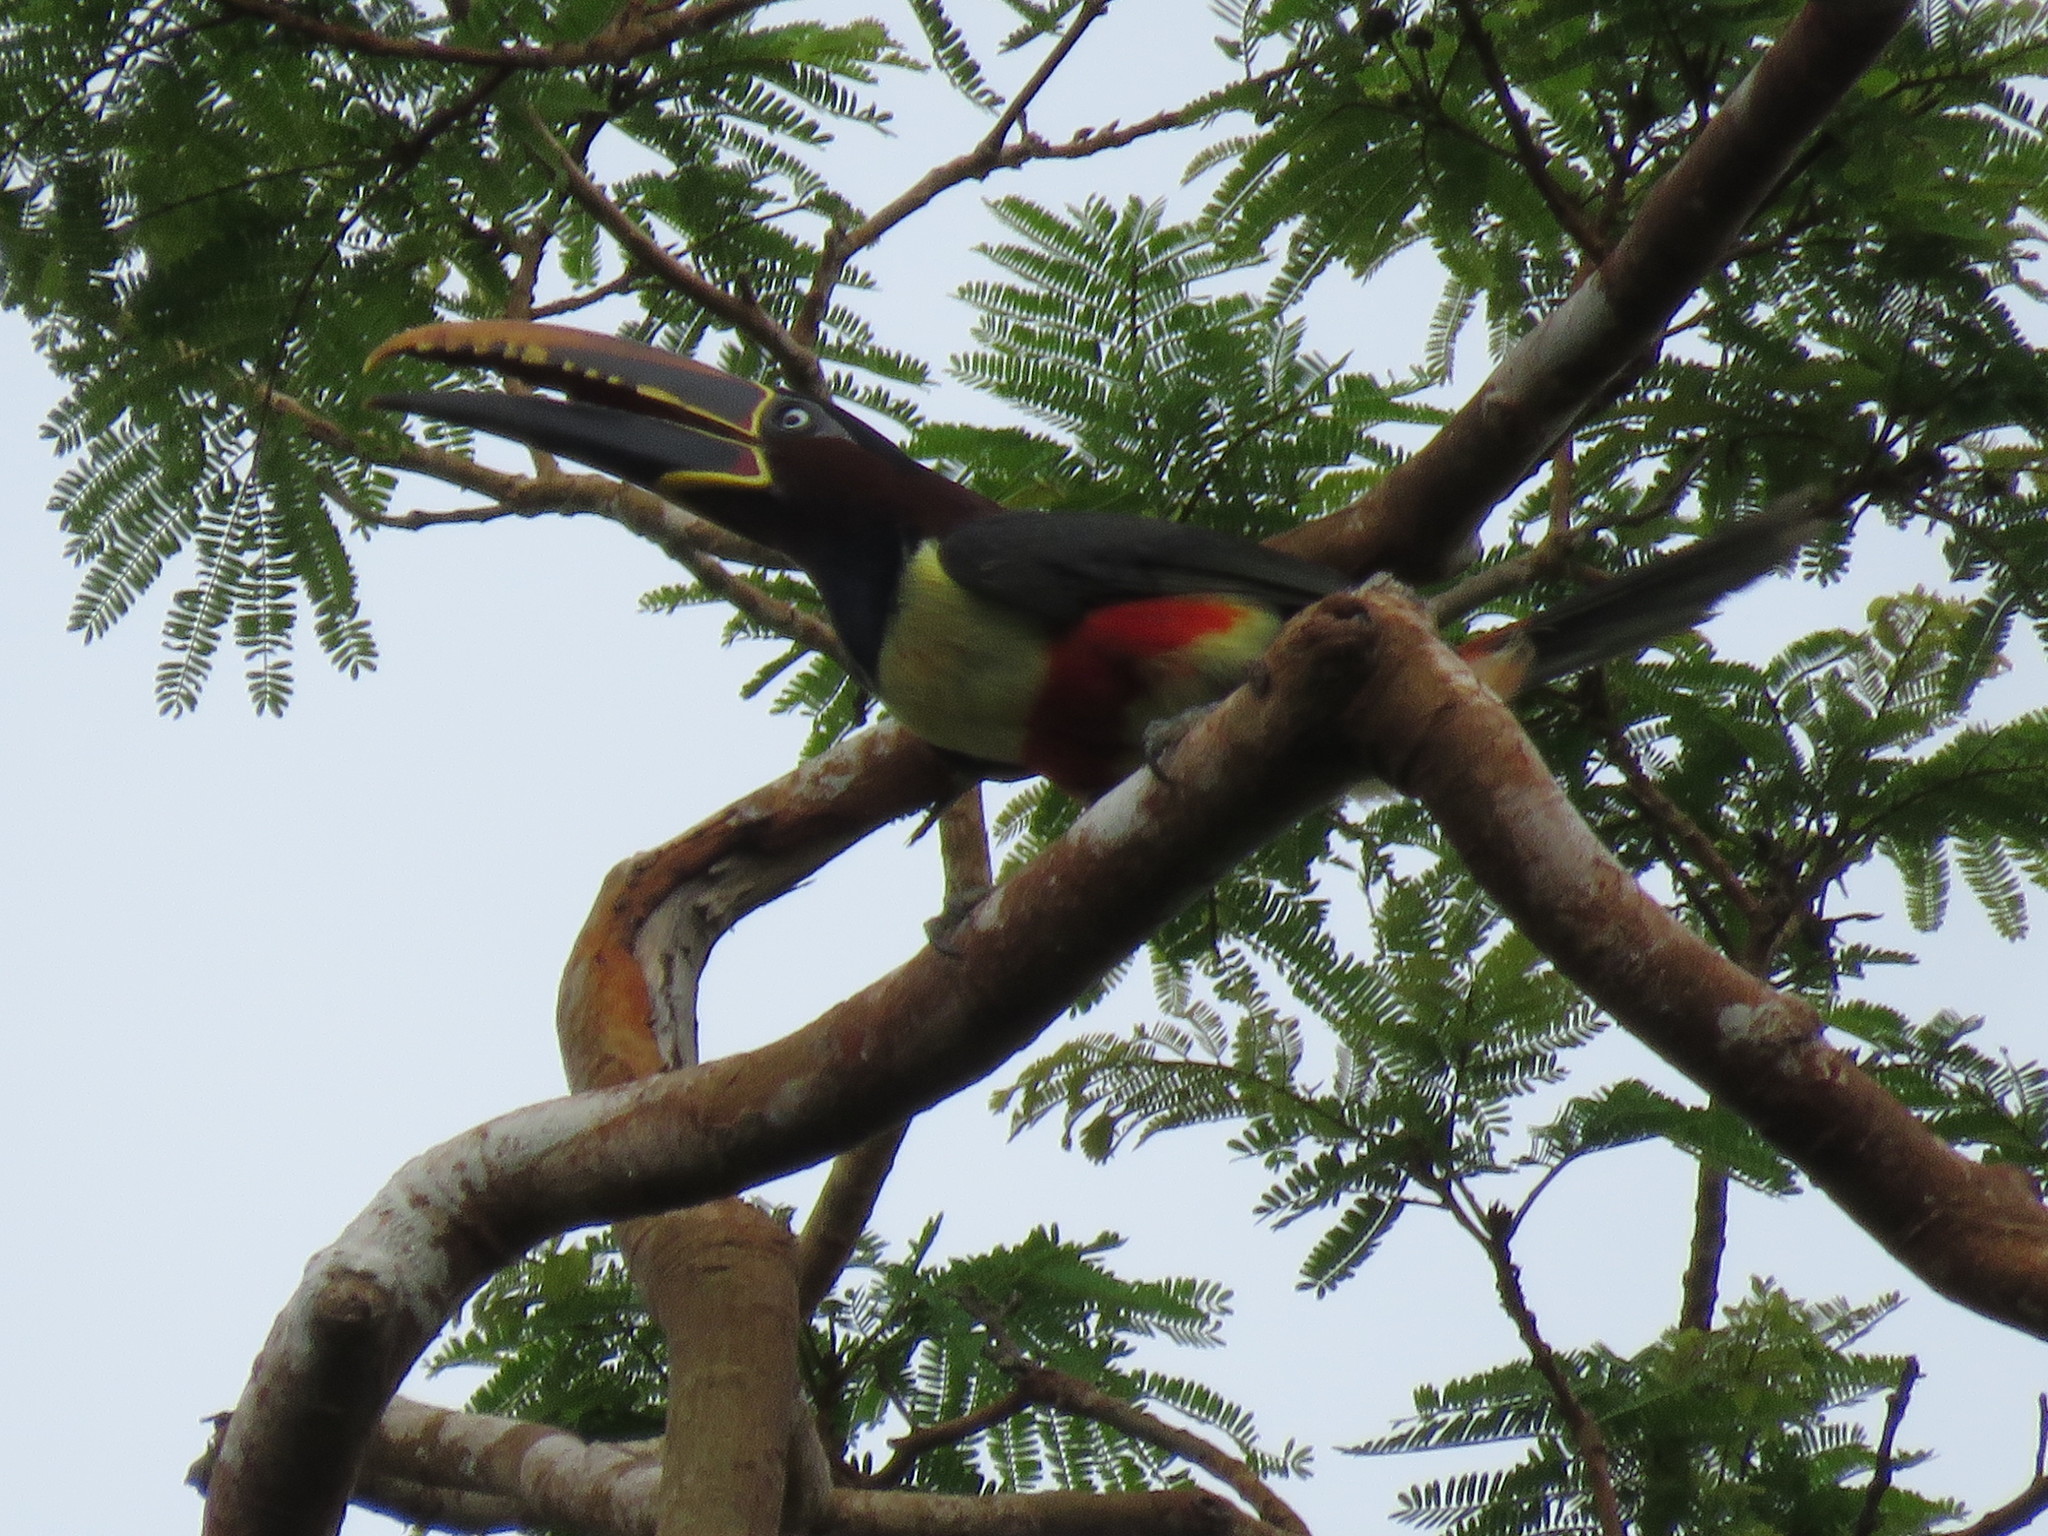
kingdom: Animalia
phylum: Chordata
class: Aves
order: Piciformes
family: Ramphastidae
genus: Pteroglossus
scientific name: Pteroglossus castanotis
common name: Chestnut-eared aracari
